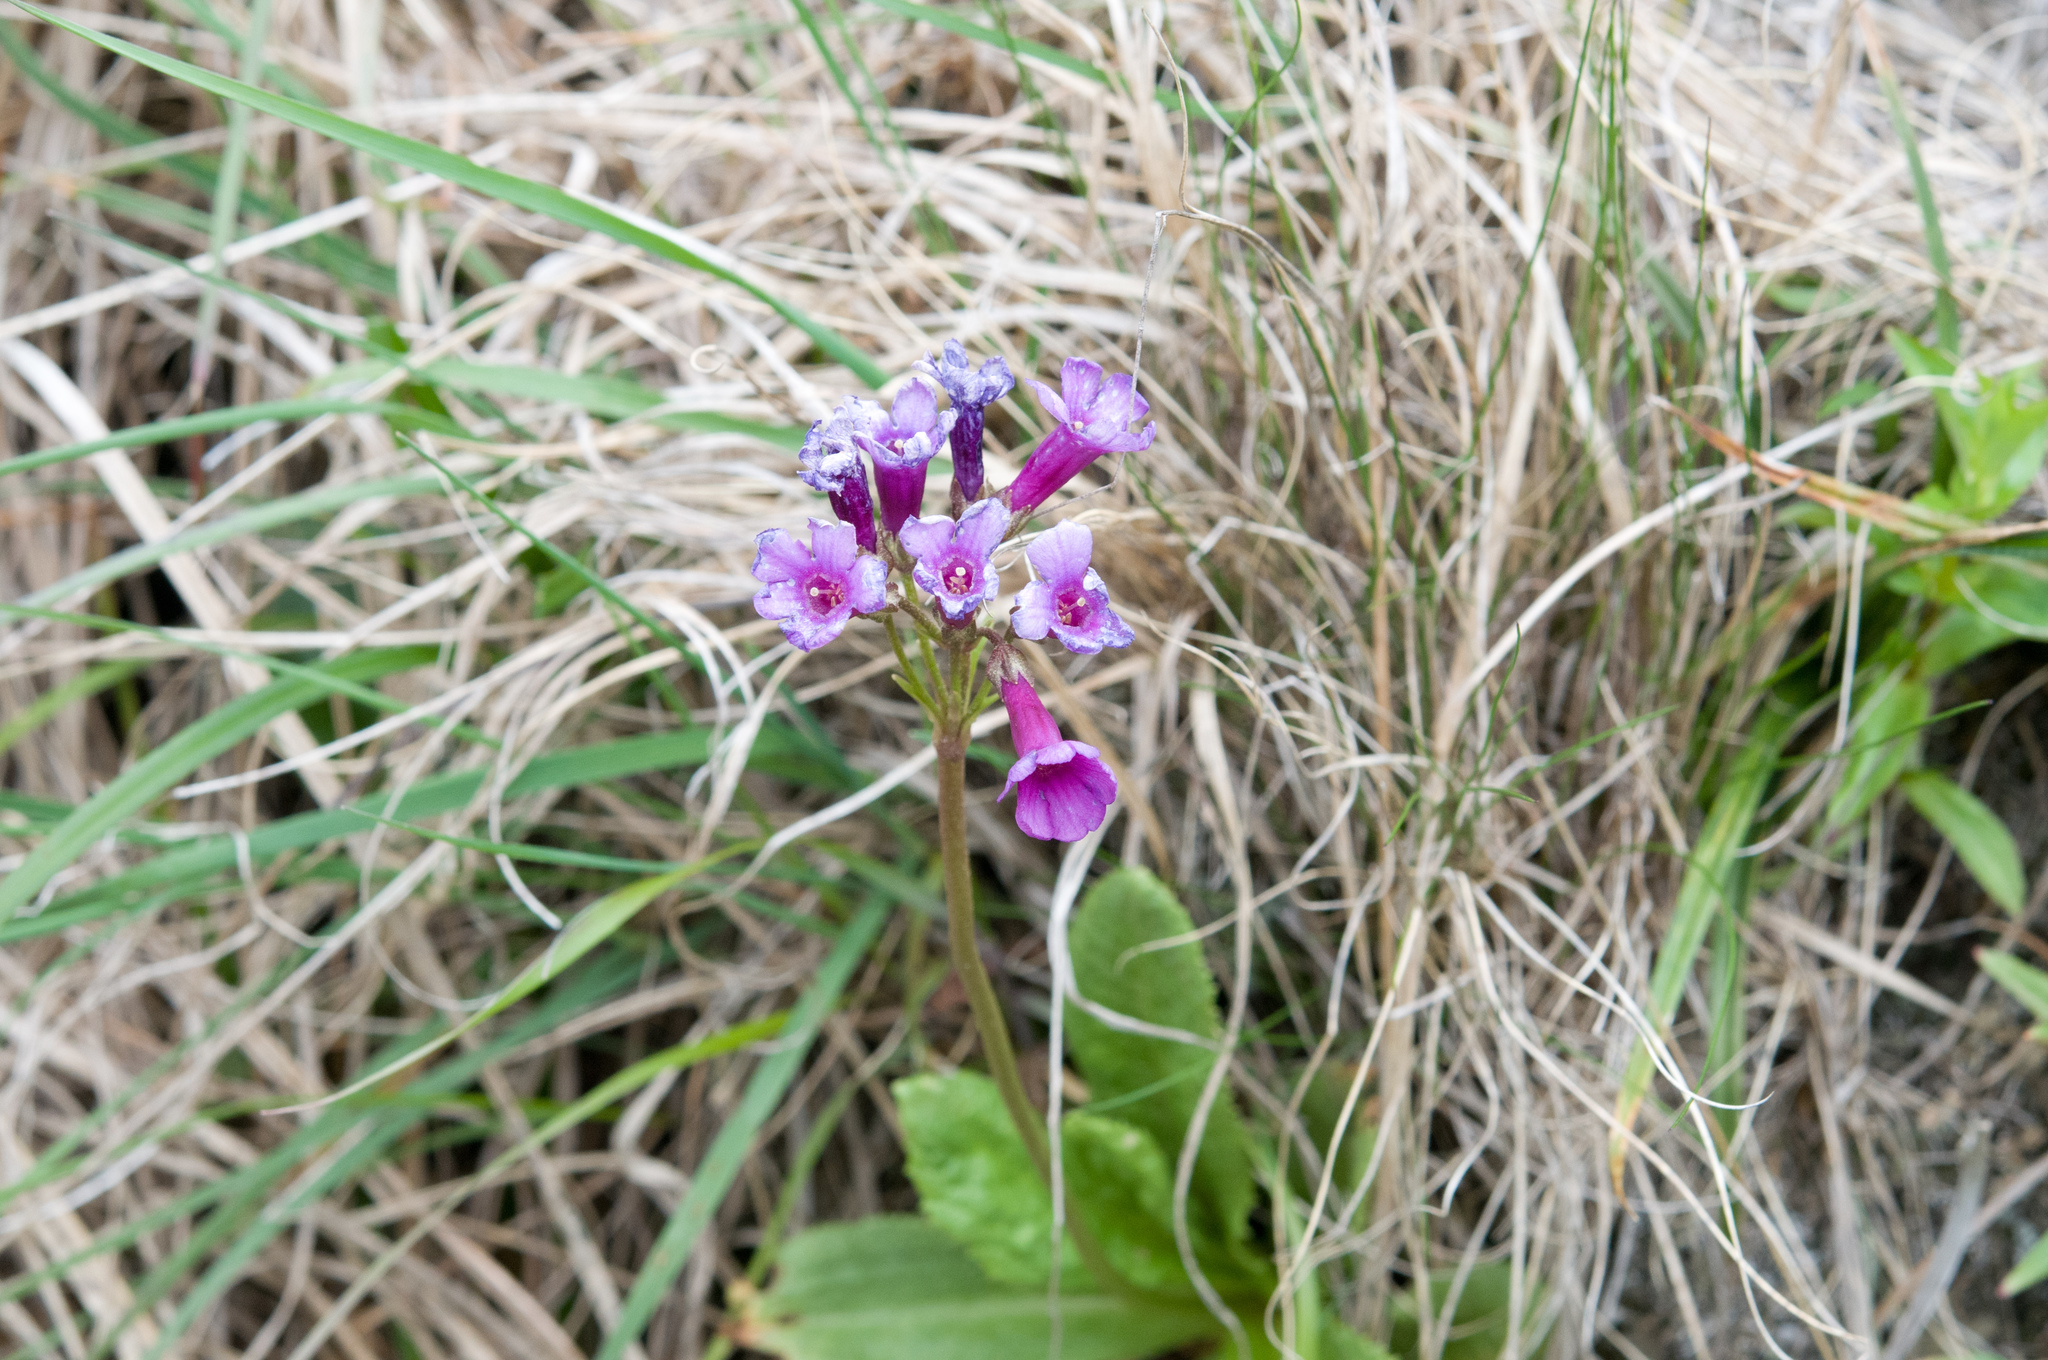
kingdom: Plantae
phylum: Tracheophyta
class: Magnoliopsida
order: Ericales
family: Primulaceae
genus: Primula
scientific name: Primula miyabeana
